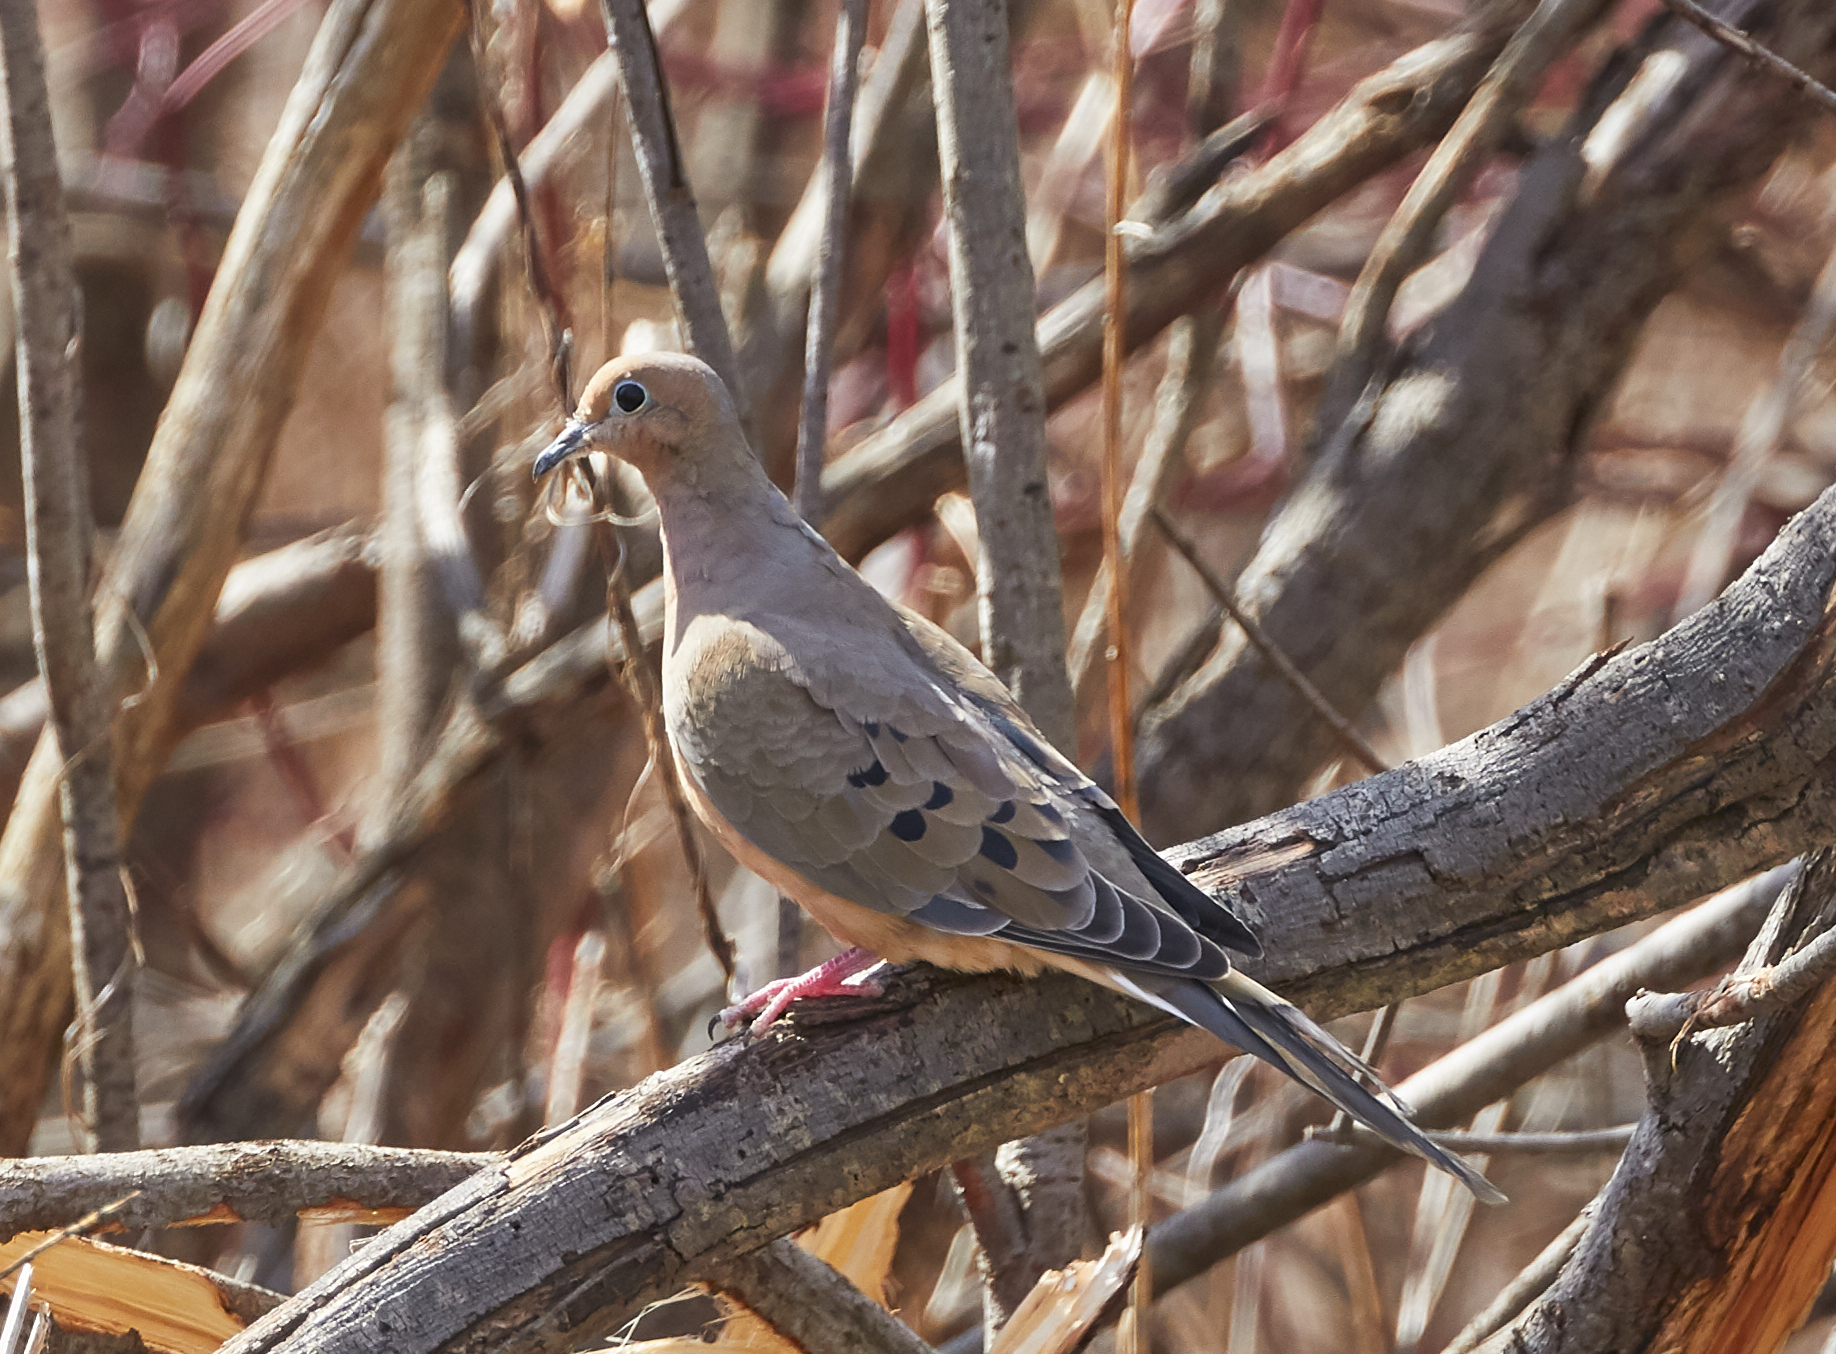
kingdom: Animalia
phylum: Chordata
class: Aves
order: Columbiformes
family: Columbidae
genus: Zenaida
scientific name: Zenaida macroura
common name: Mourning dove
